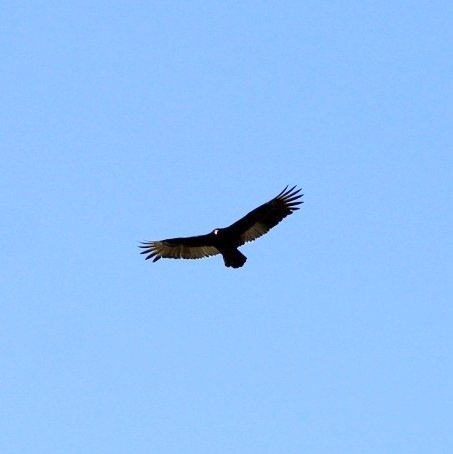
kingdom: Animalia
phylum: Chordata
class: Aves
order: Accipitriformes
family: Cathartidae
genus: Cathartes
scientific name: Cathartes aura
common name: Turkey vulture
